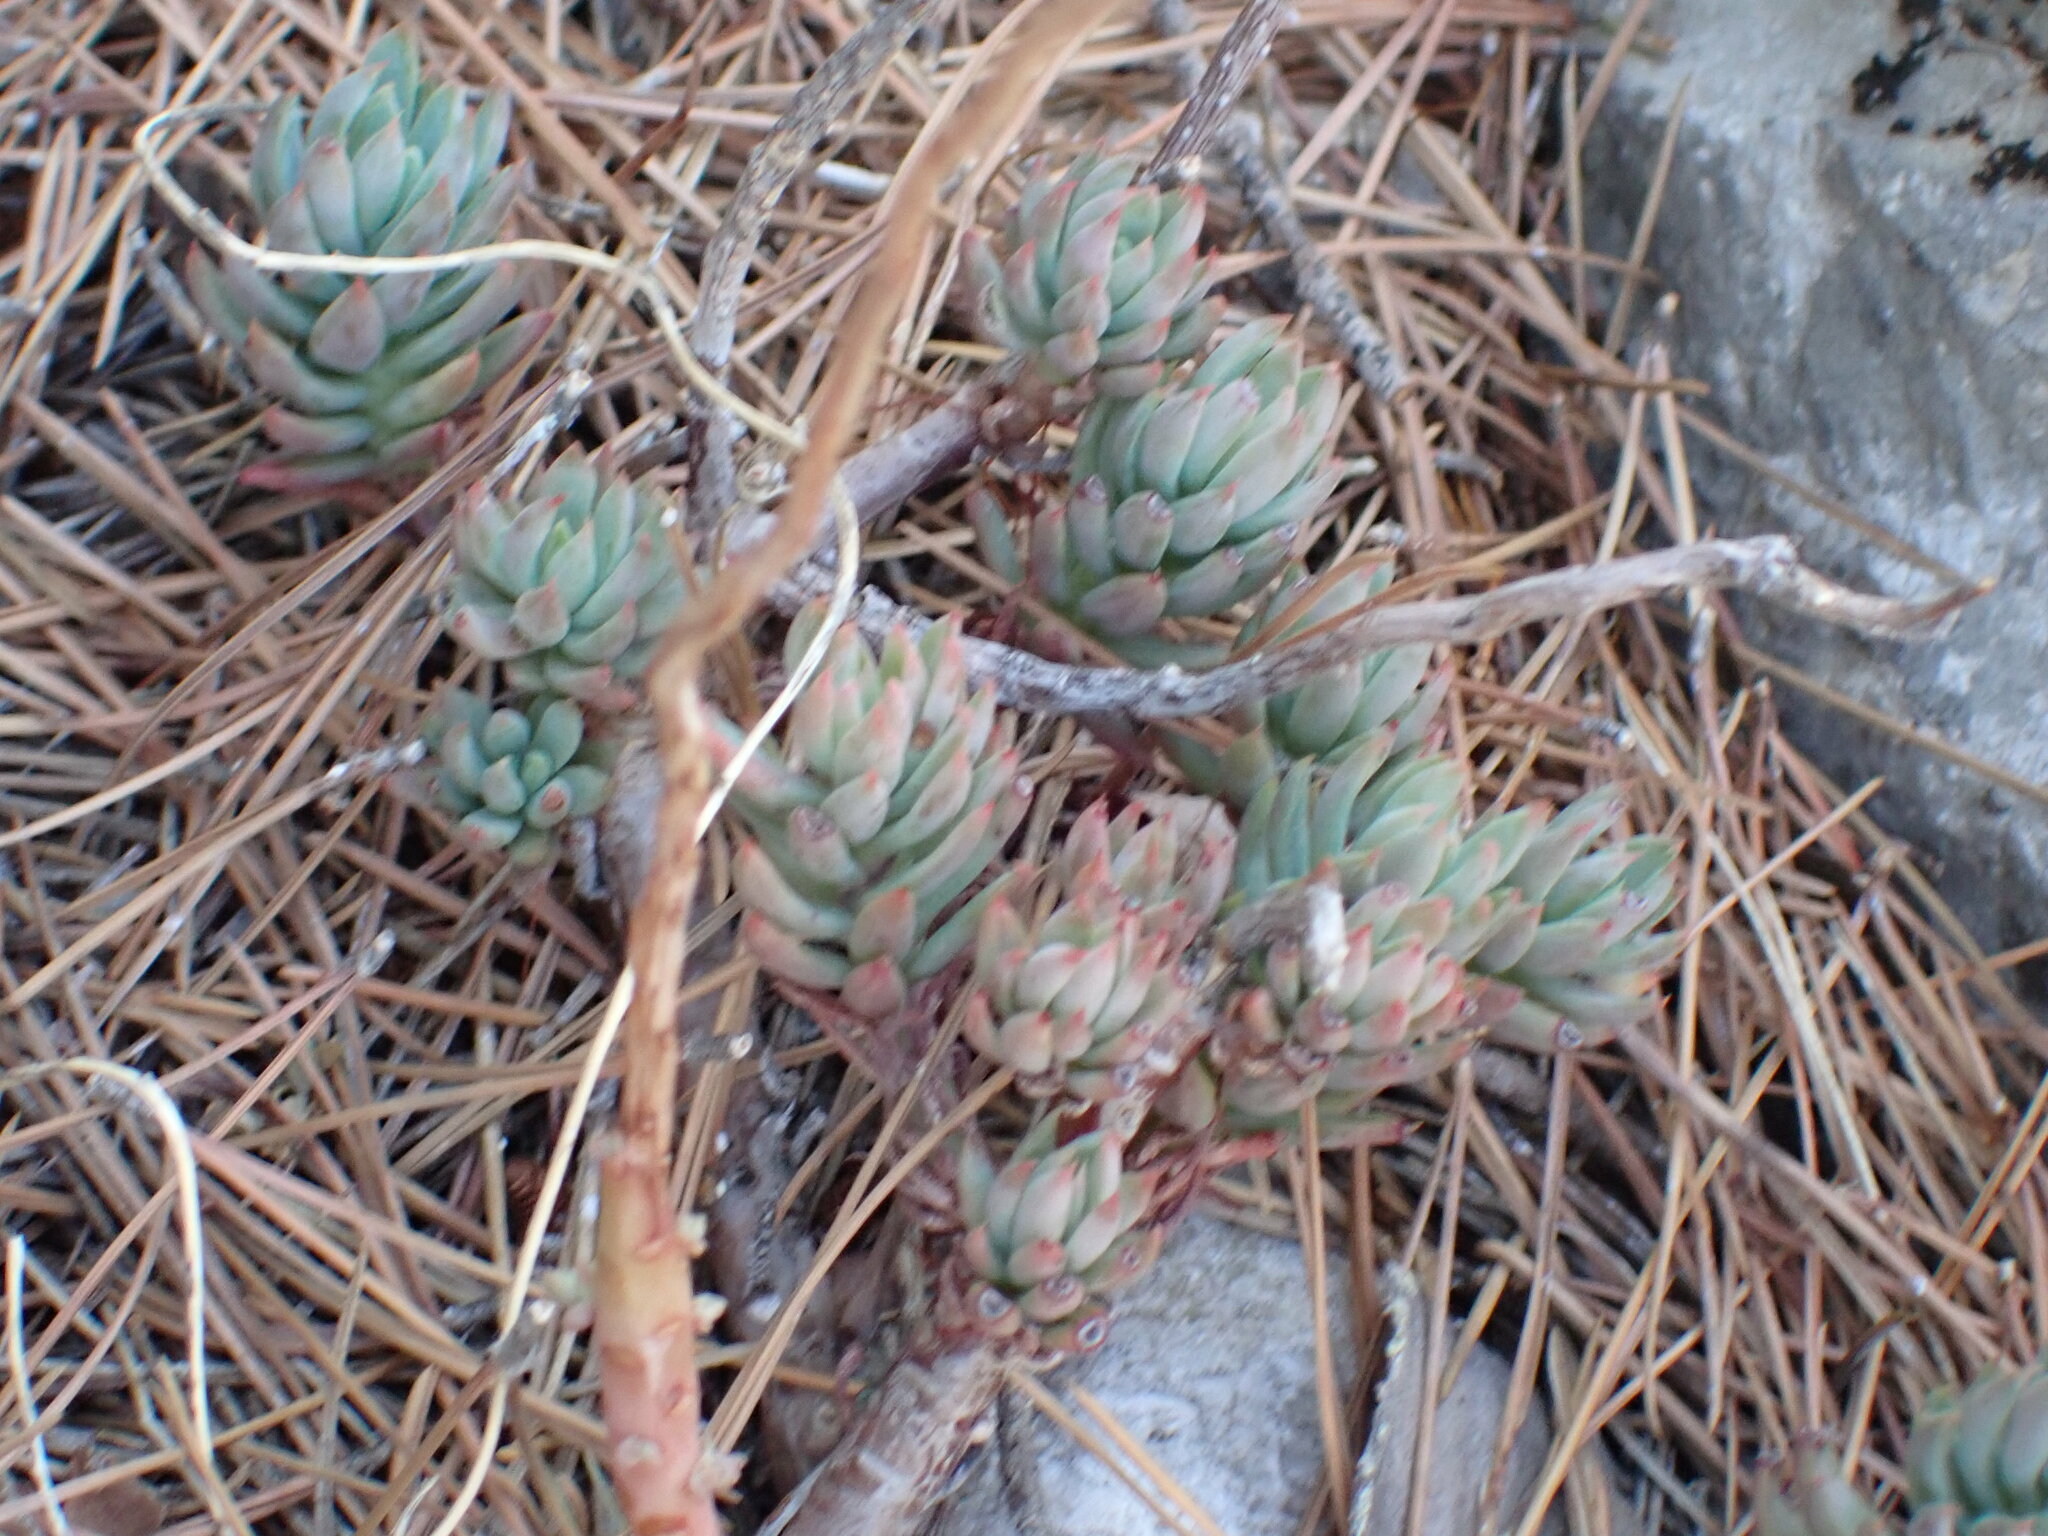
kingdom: Plantae
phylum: Tracheophyta
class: Magnoliopsida
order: Saxifragales
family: Crassulaceae
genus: Petrosedum
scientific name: Petrosedum sediforme
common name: Pale stonecrop
